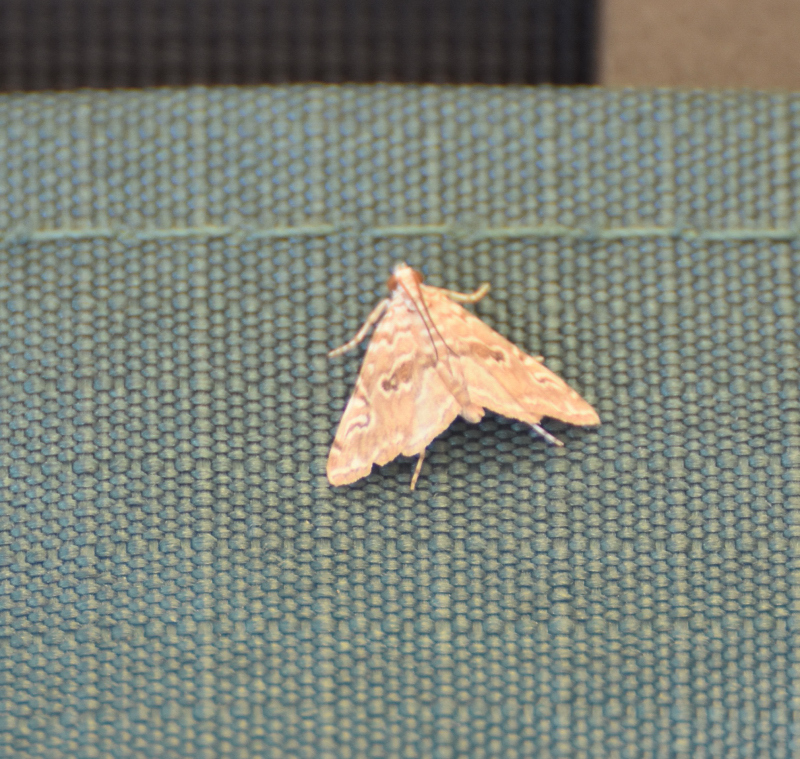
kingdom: Animalia
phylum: Arthropoda
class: Insecta
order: Lepidoptera
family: Crambidae
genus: Elophila
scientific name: Elophila gyralis
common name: Waterlily borer moth
